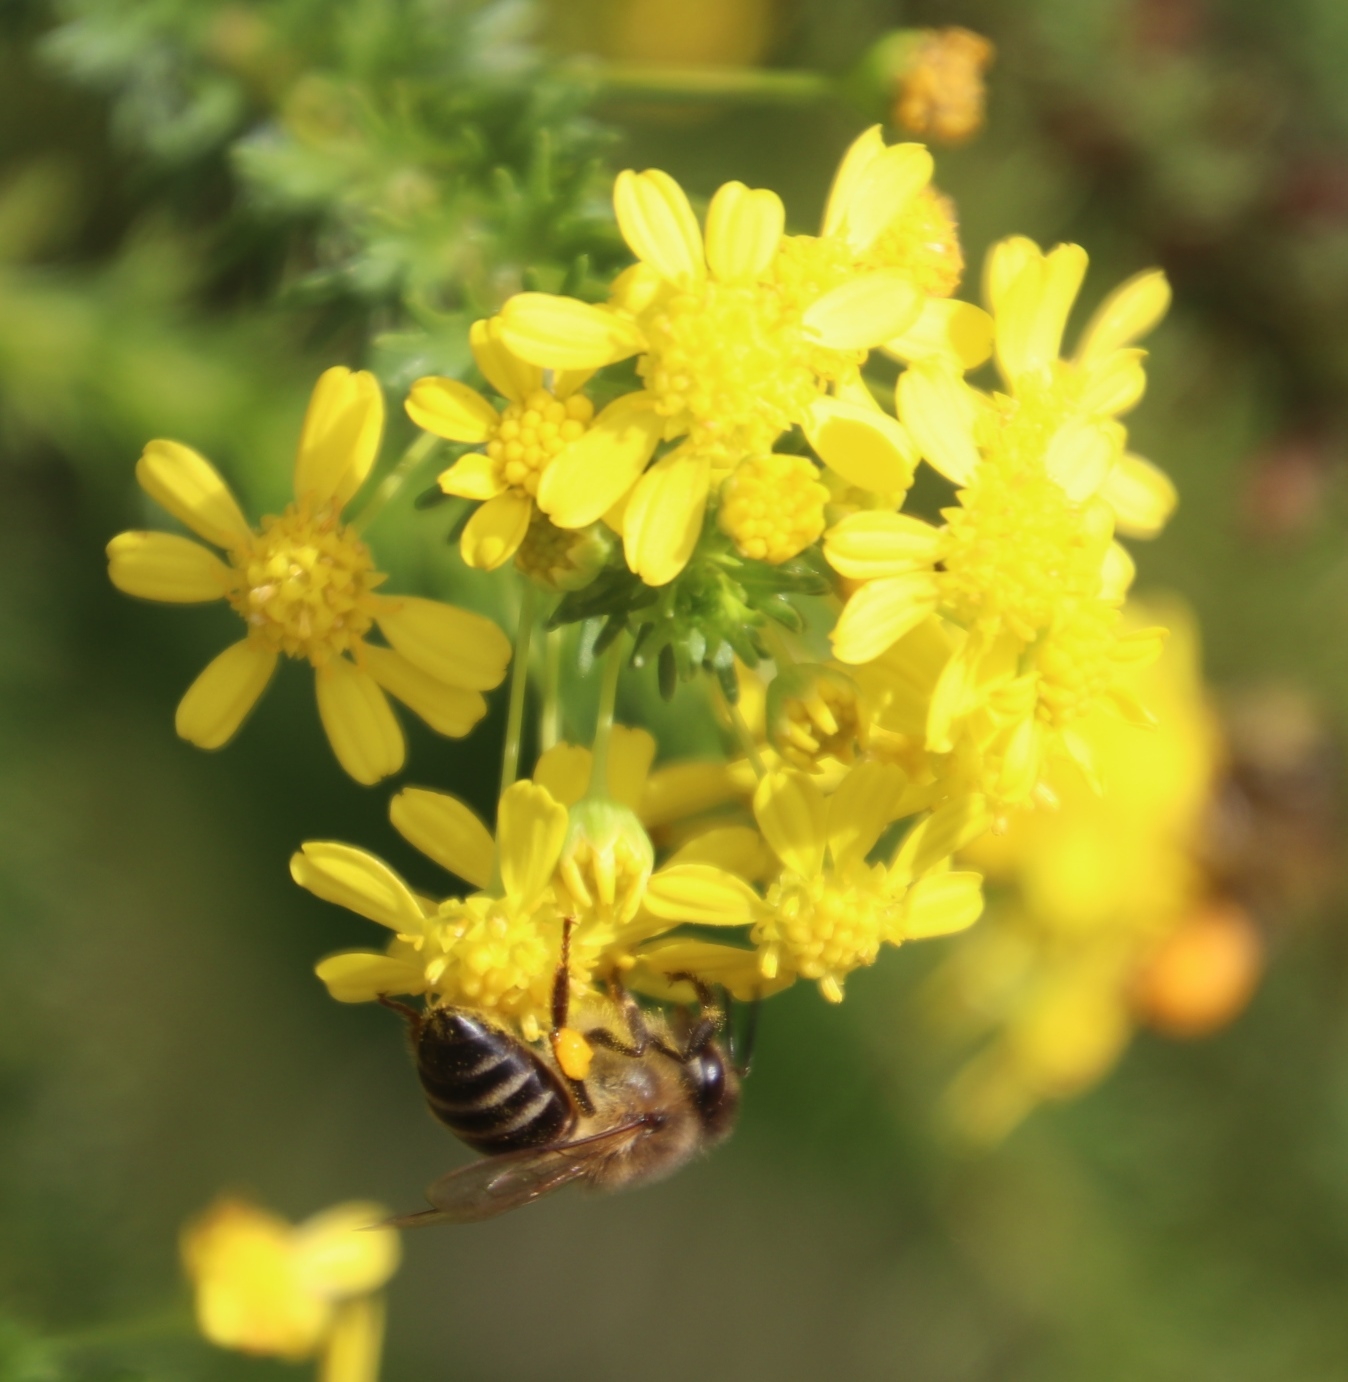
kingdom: Animalia
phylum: Arthropoda
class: Insecta
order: Hymenoptera
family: Apidae
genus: Apis
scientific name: Apis mellifera
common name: Honey bee
